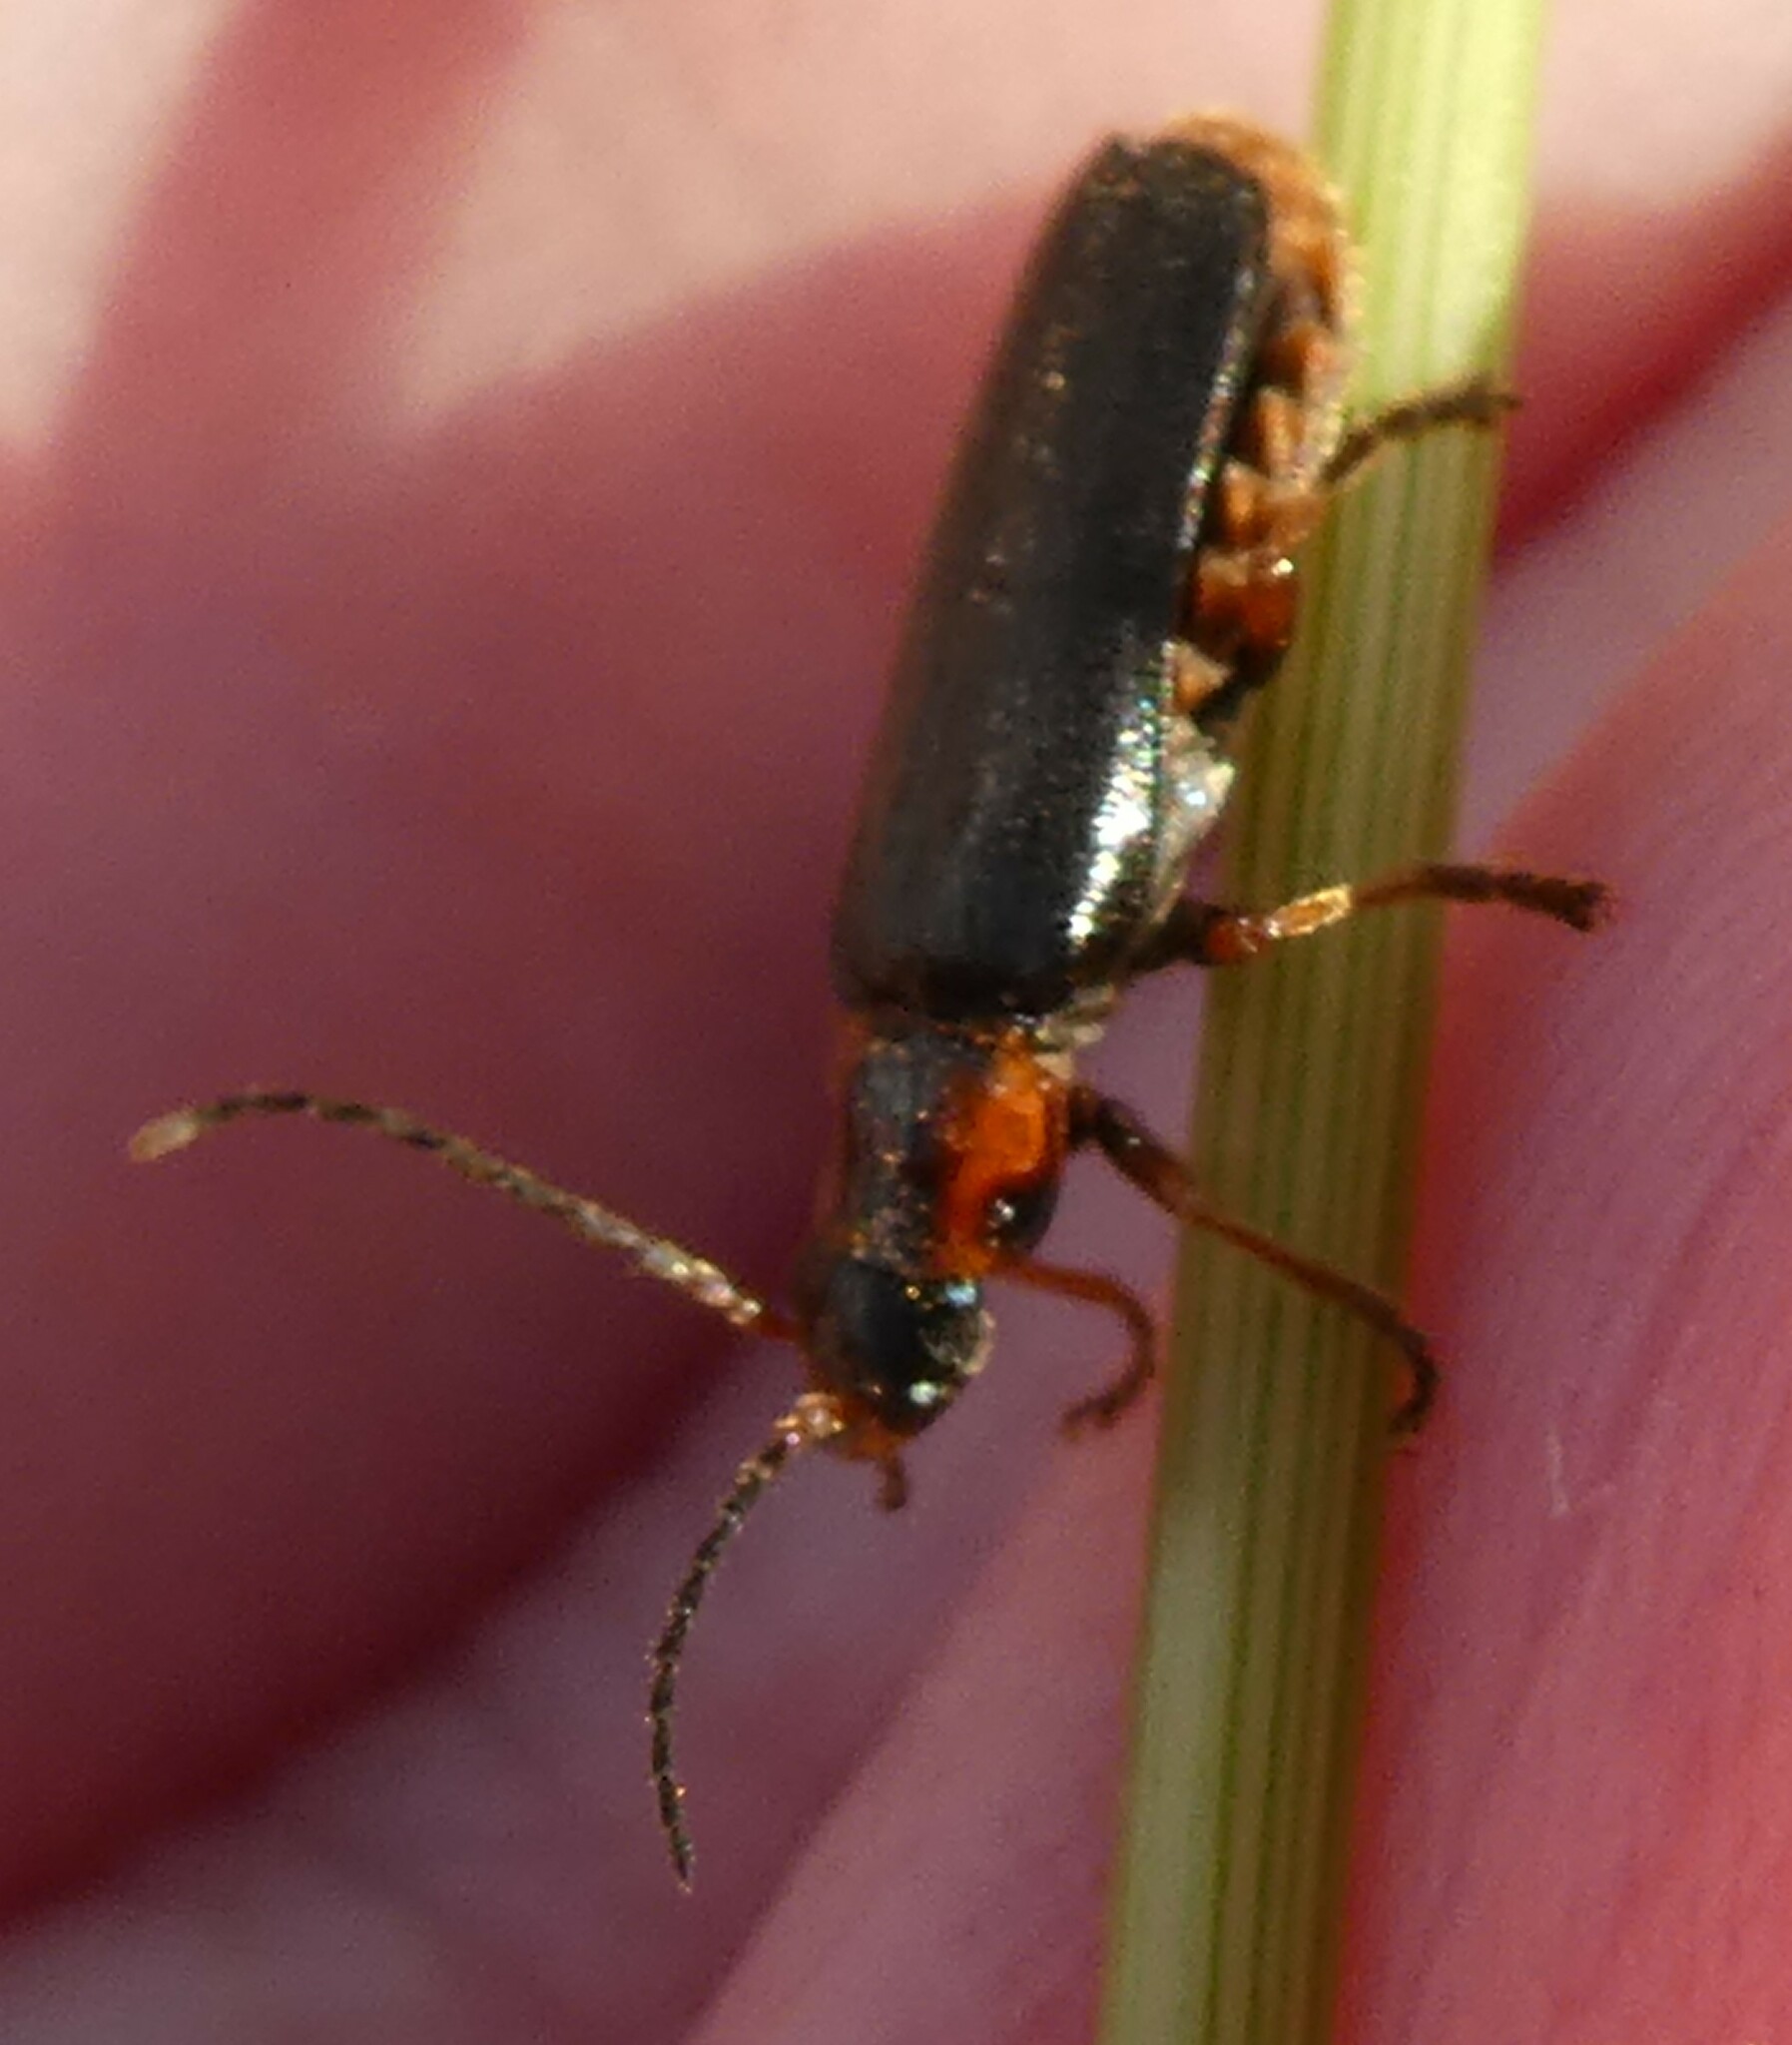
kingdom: Animalia
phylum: Arthropoda
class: Insecta
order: Coleoptera
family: Cantharidae
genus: Cantharis
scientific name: Cantharis flavilabris
